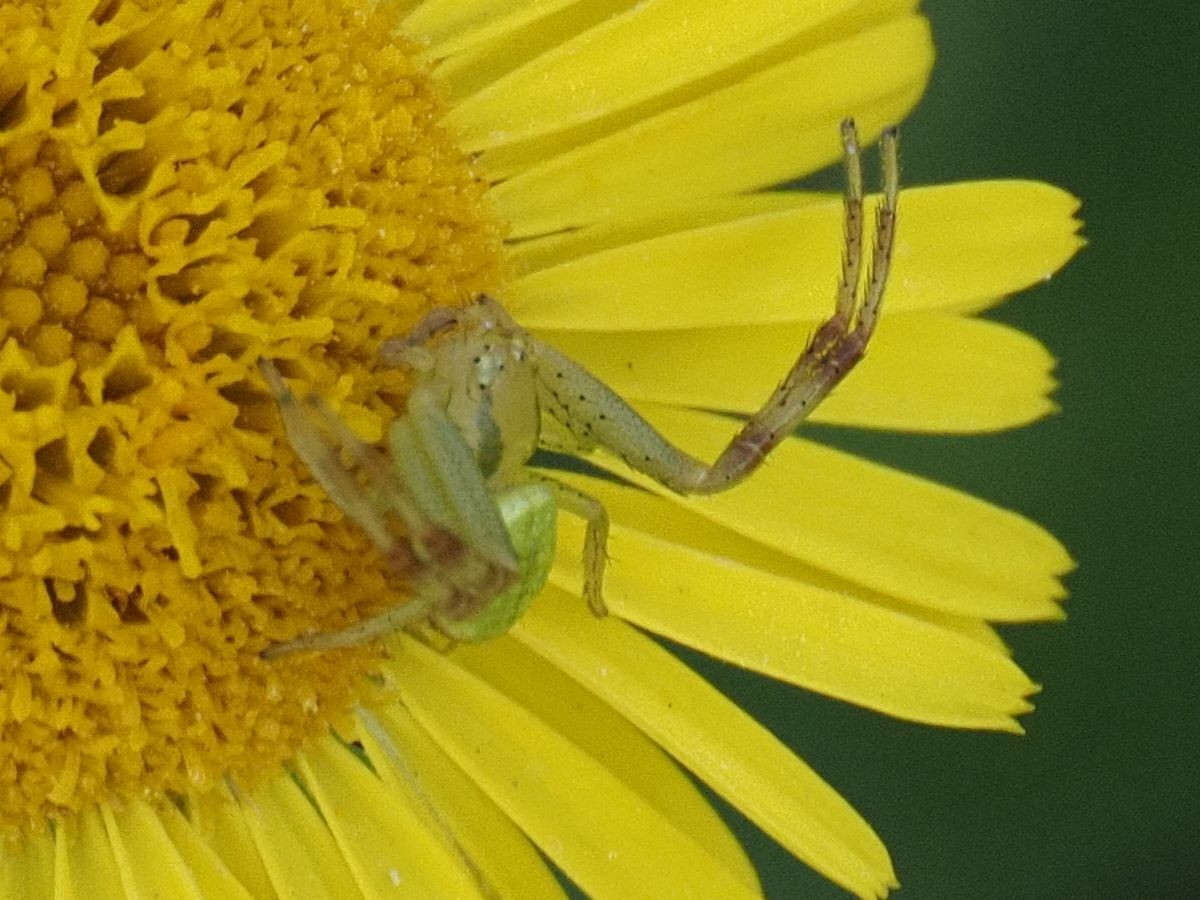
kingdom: Animalia
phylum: Arthropoda
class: Arachnida
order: Araneae
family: Thomisidae
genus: Ebrechtella
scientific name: Ebrechtella tricuspidata
